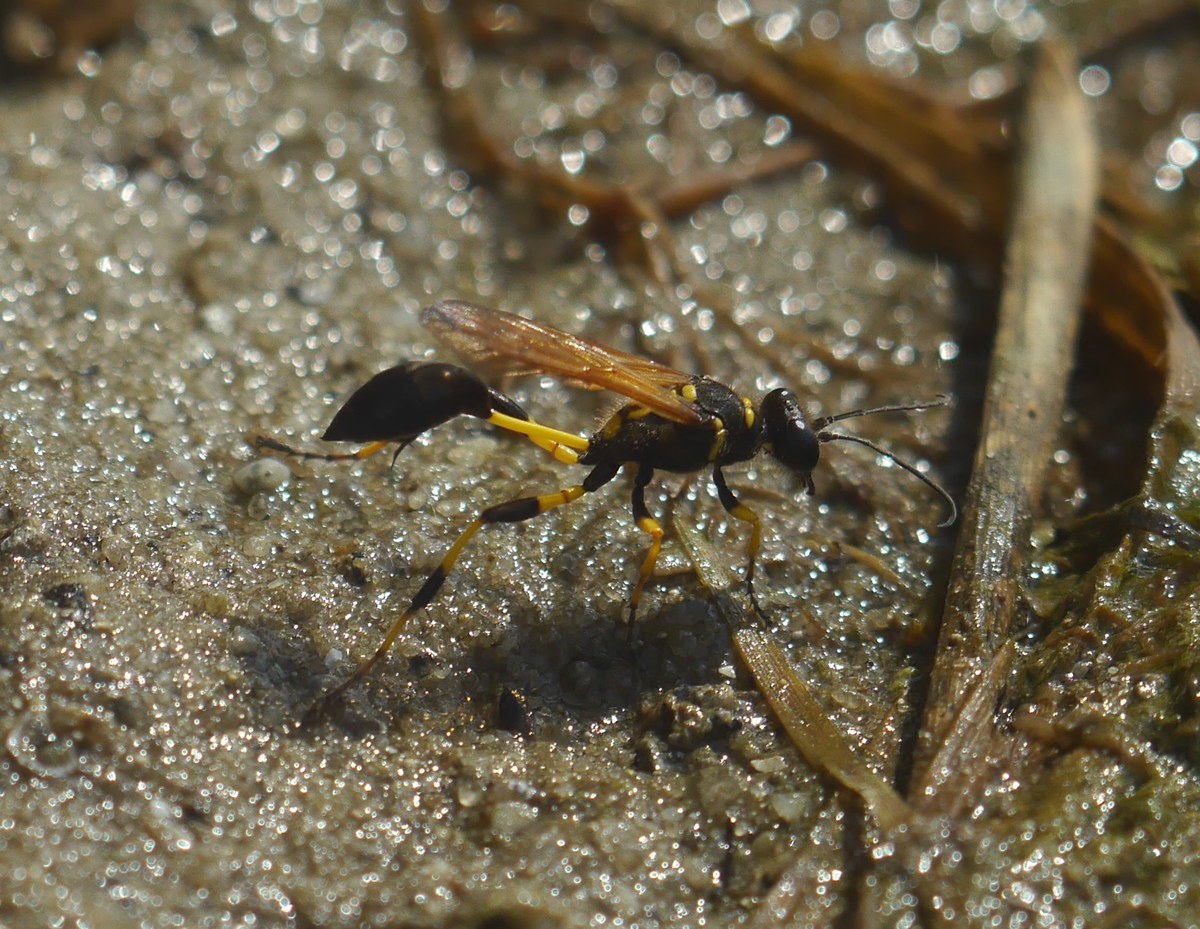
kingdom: Animalia
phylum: Arthropoda
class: Insecta
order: Hymenoptera
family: Sphecidae
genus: Sceliphron
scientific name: Sceliphron madraspatanum
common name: Mud dauber
